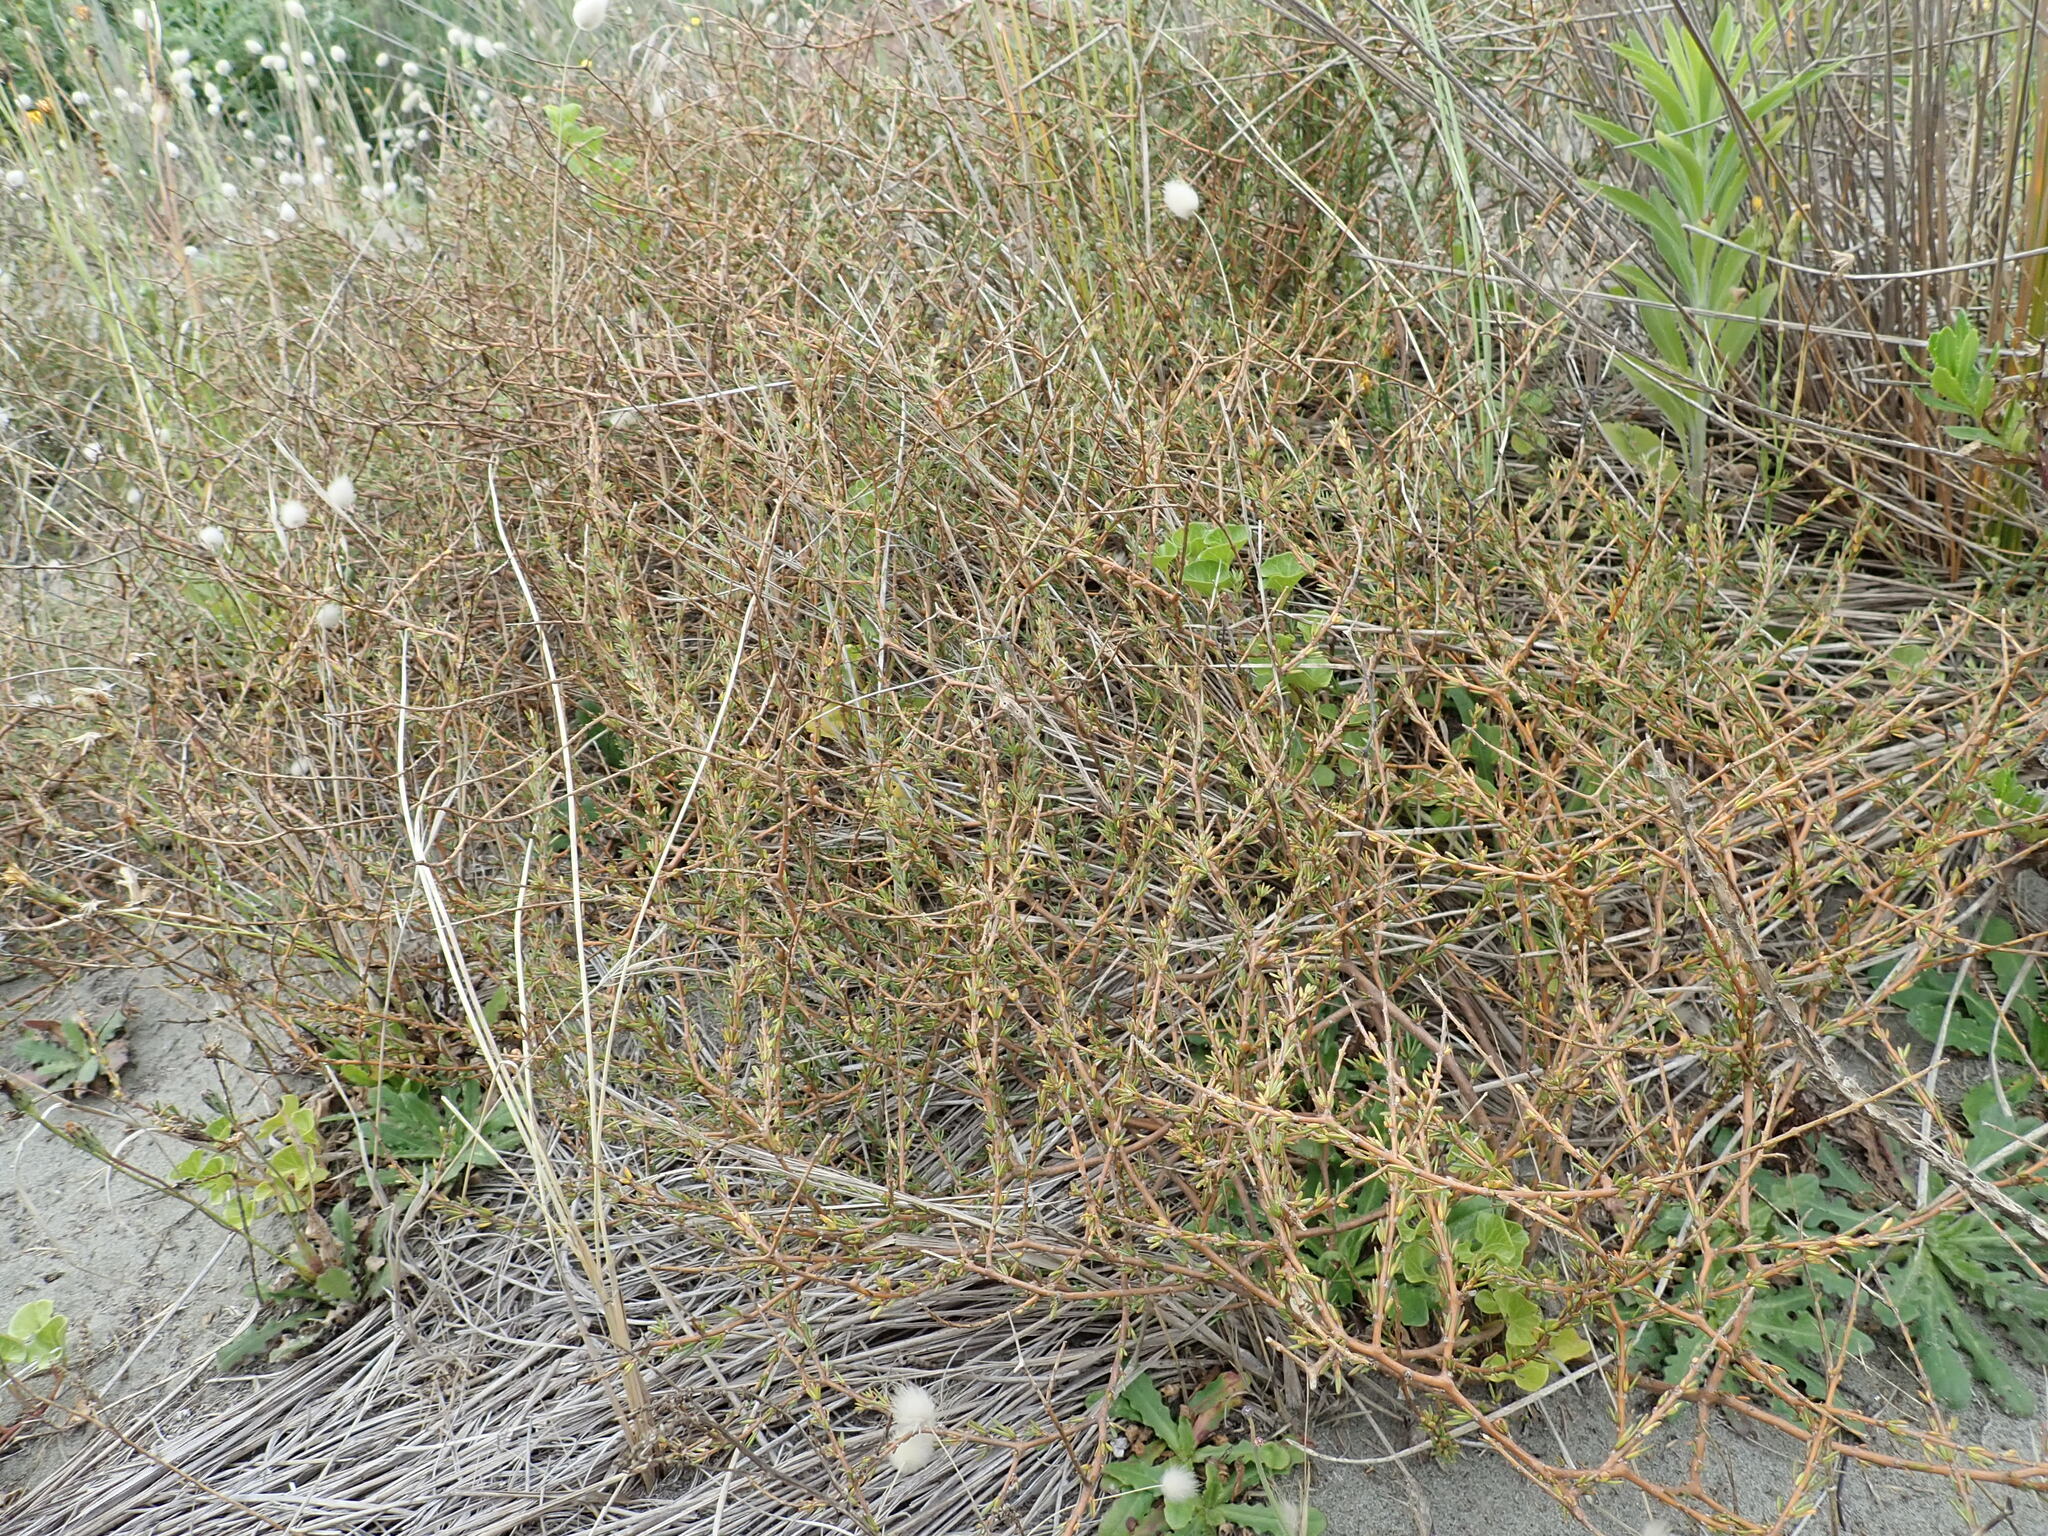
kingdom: Plantae
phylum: Tracheophyta
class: Magnoliopsida
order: Gentianales
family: Rubiaceae
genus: Coprosma
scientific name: Coprosma acerosa
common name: Sand coprosma
